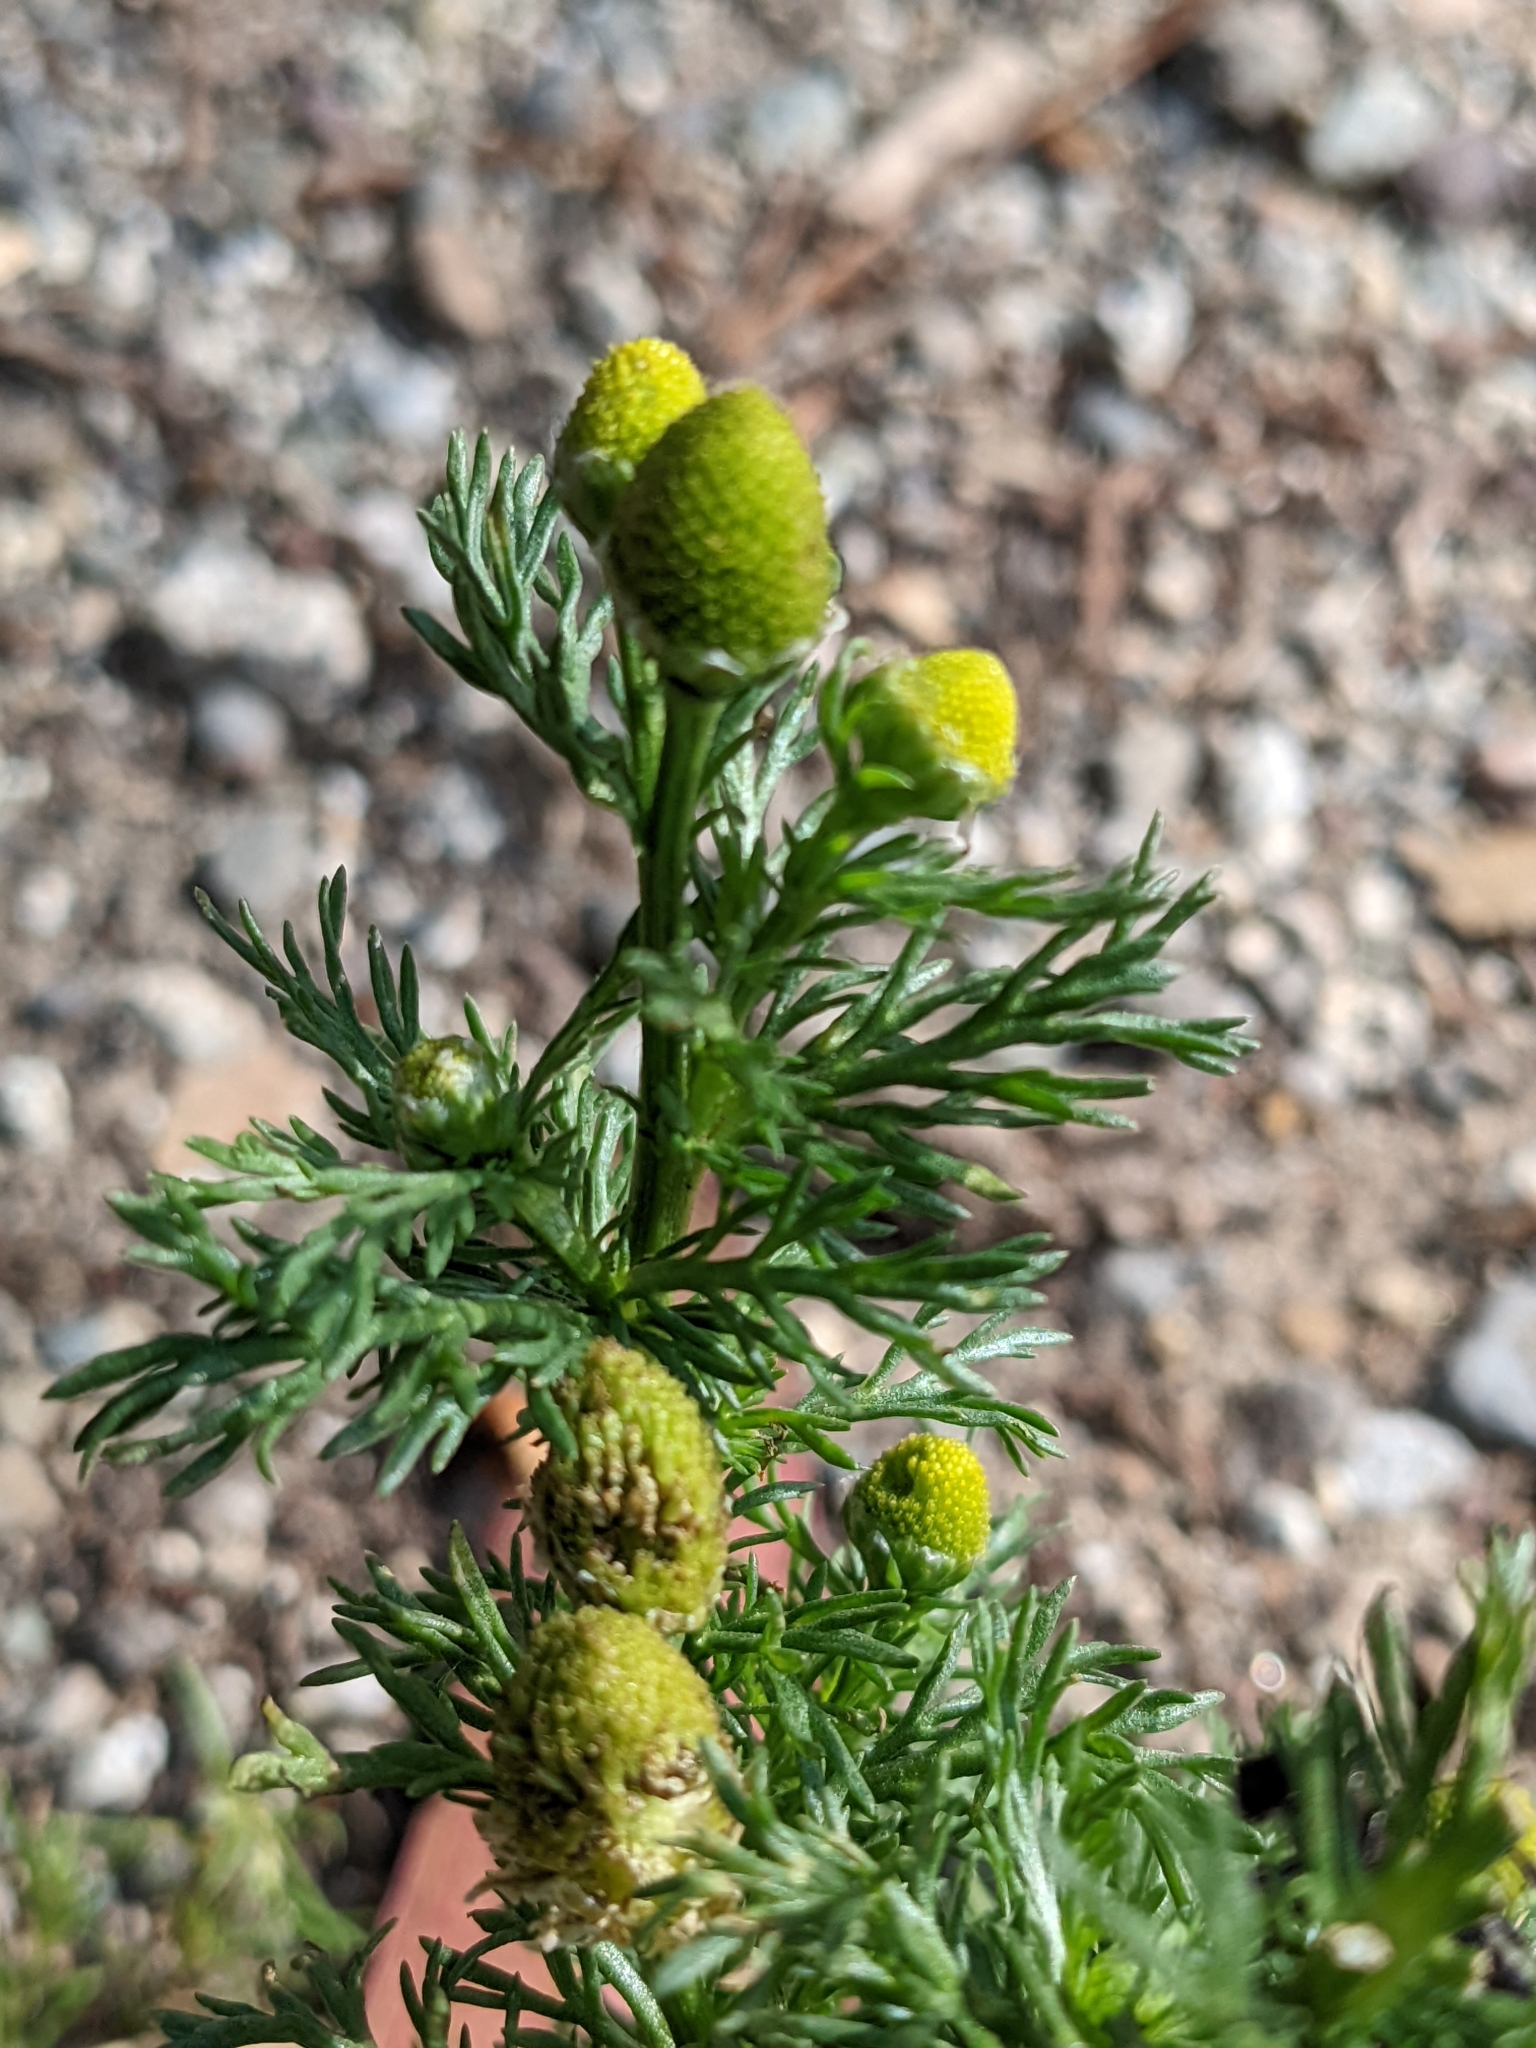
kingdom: Plantae
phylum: Tracheophyta
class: Magnoliopsida
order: Asterales
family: Asteraceae
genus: Matricaria
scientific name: Matricaria discoidea
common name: Disc mayweed
